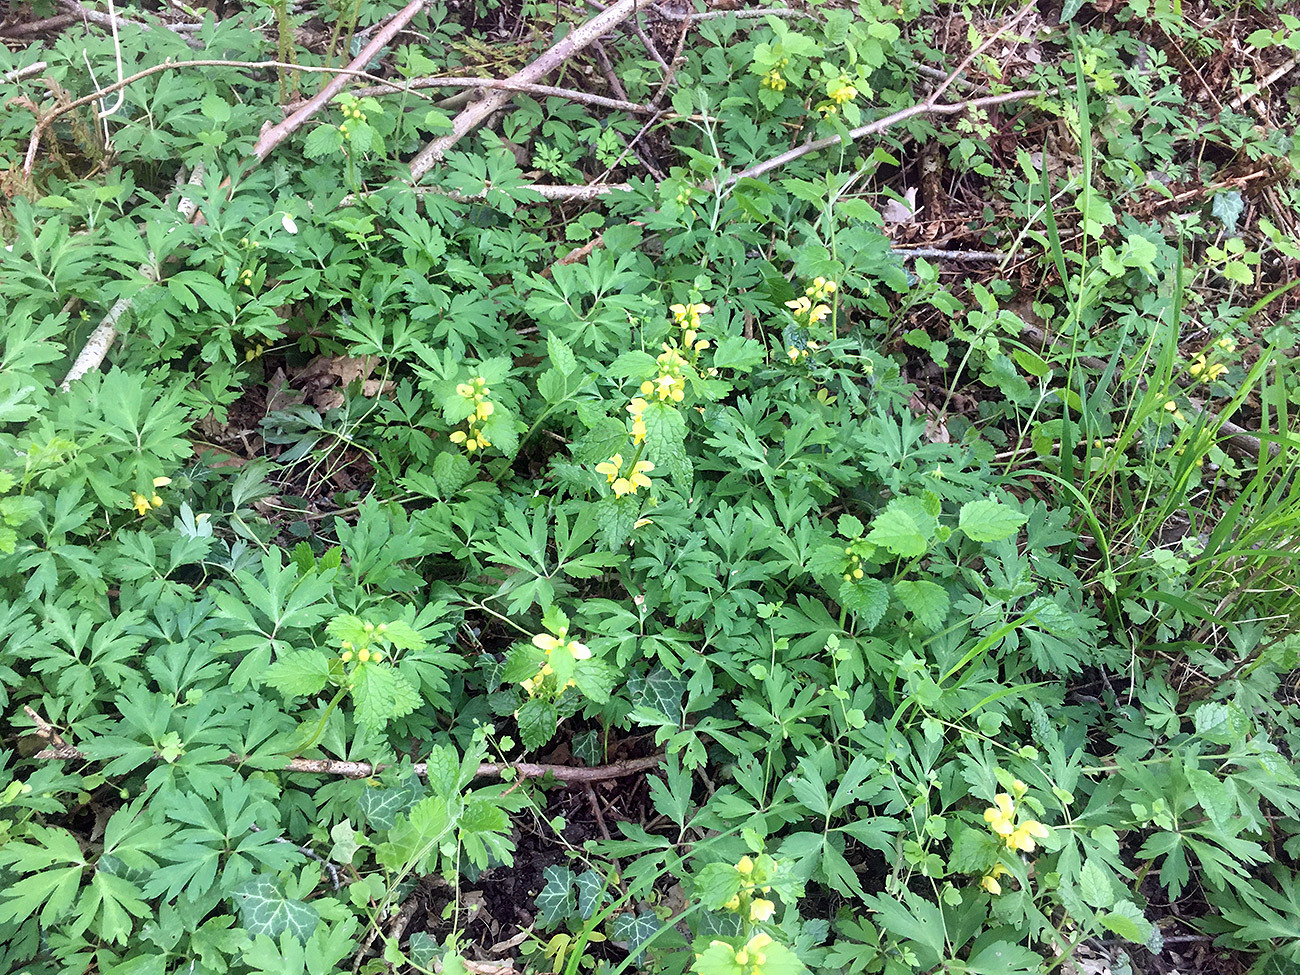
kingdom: Plantae
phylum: Tracheophyta
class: Magnoliopsida
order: Lamiales
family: Lamiaceae
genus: Lamium
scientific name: Lamium galeobdolon
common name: Yellow archangel
